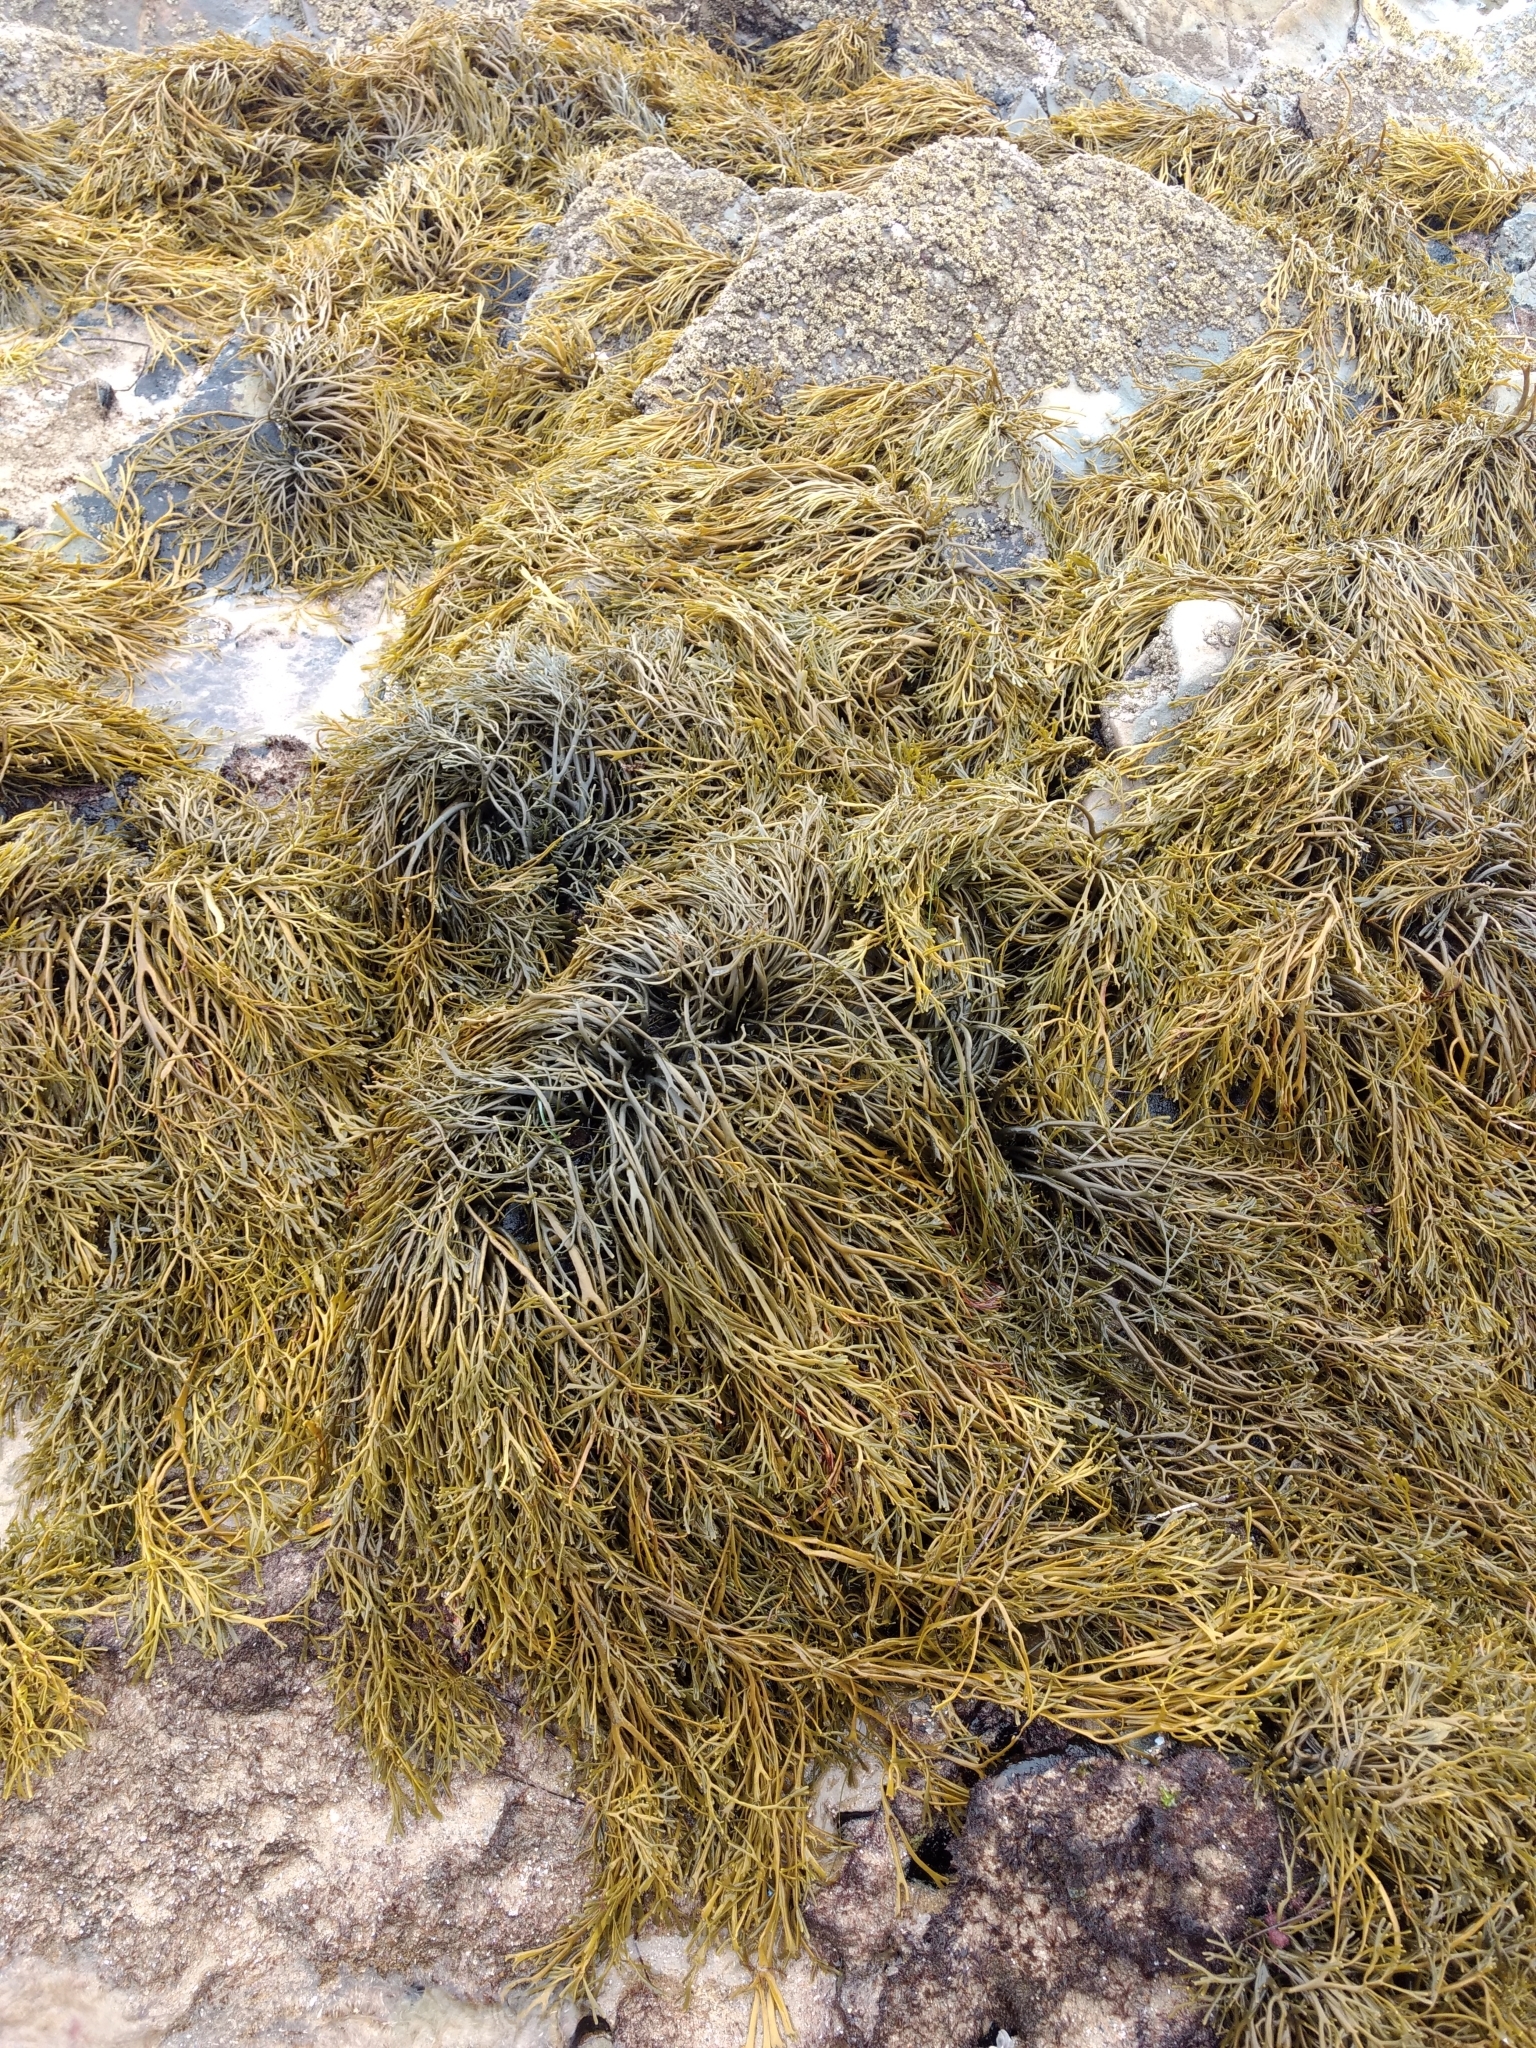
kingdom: Chromista
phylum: Ochrophyta
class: Phaeophyceae
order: Fucales
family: Fucaceae
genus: Silvetia
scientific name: Silvetia
